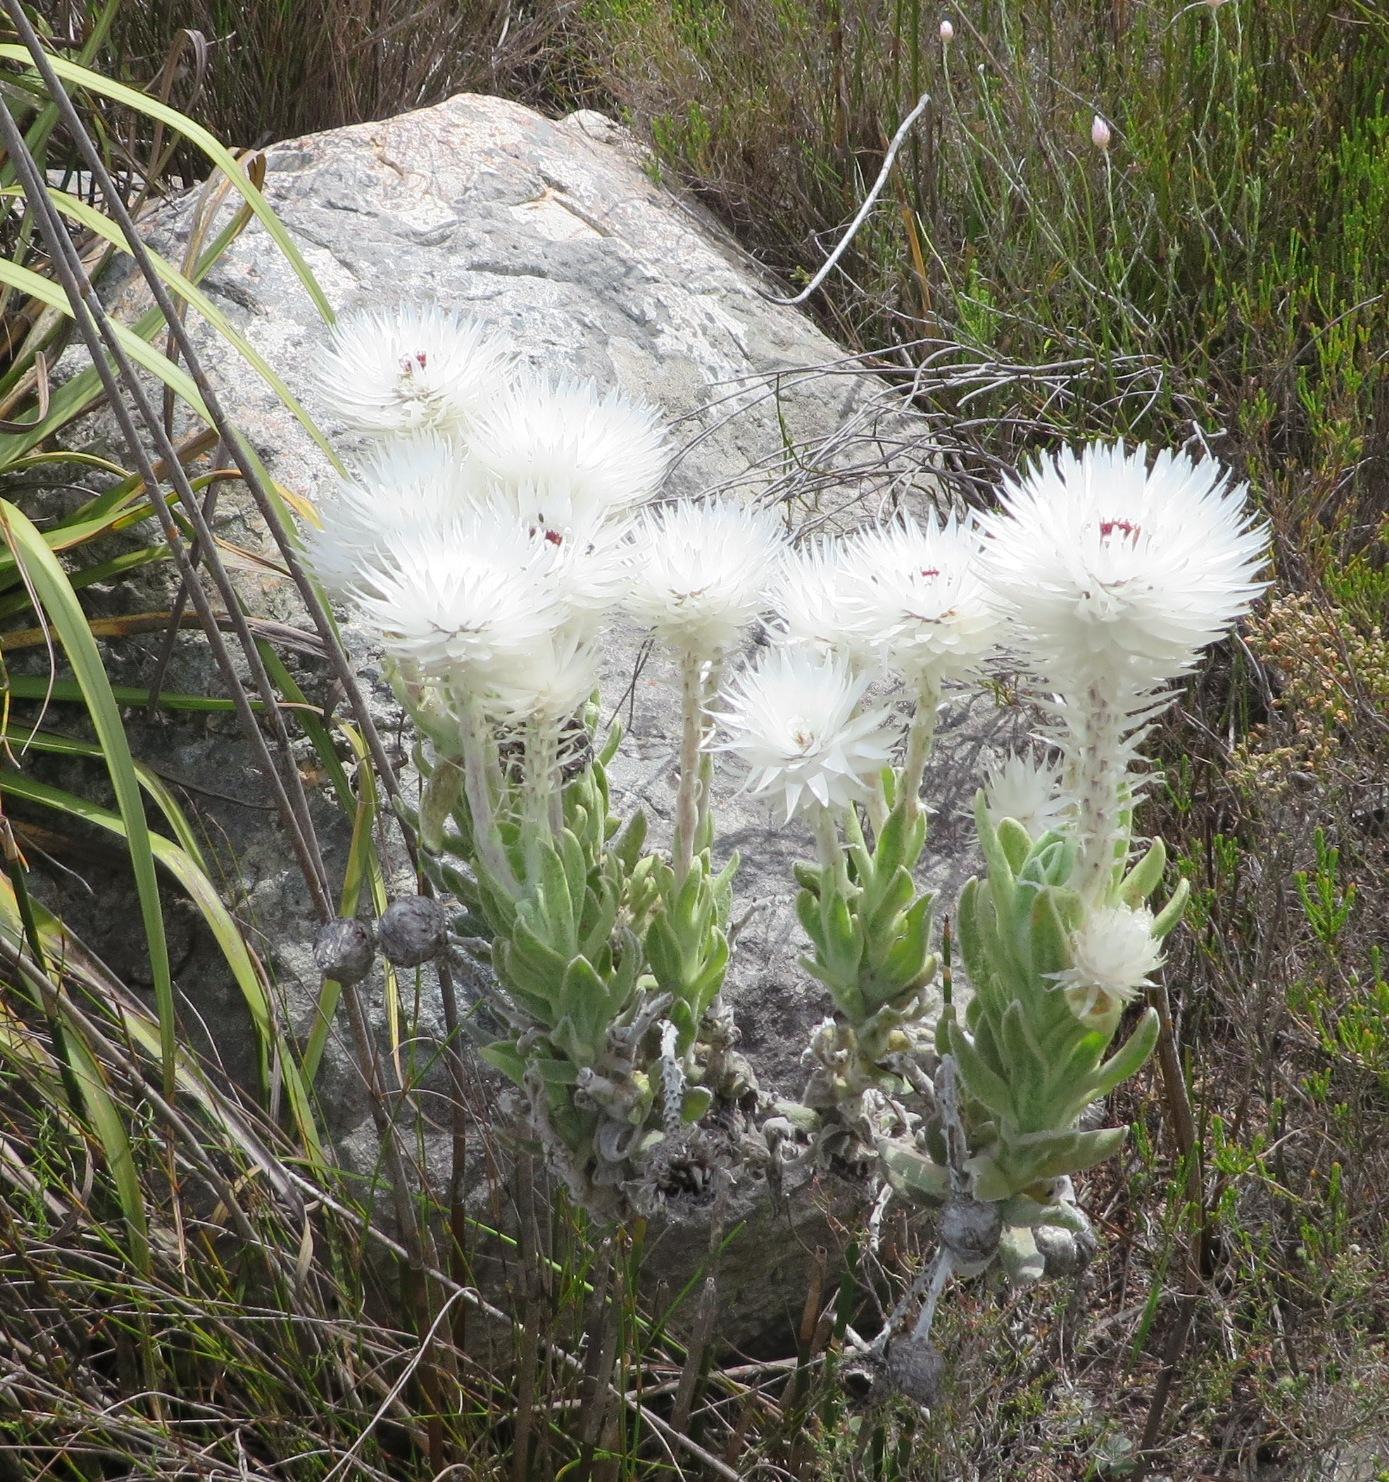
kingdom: Plantae
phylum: Tracheophyta
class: Magnoliopsida
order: Asterales
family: Asteraceae
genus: Syncarpha
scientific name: Syncarpha vestita
